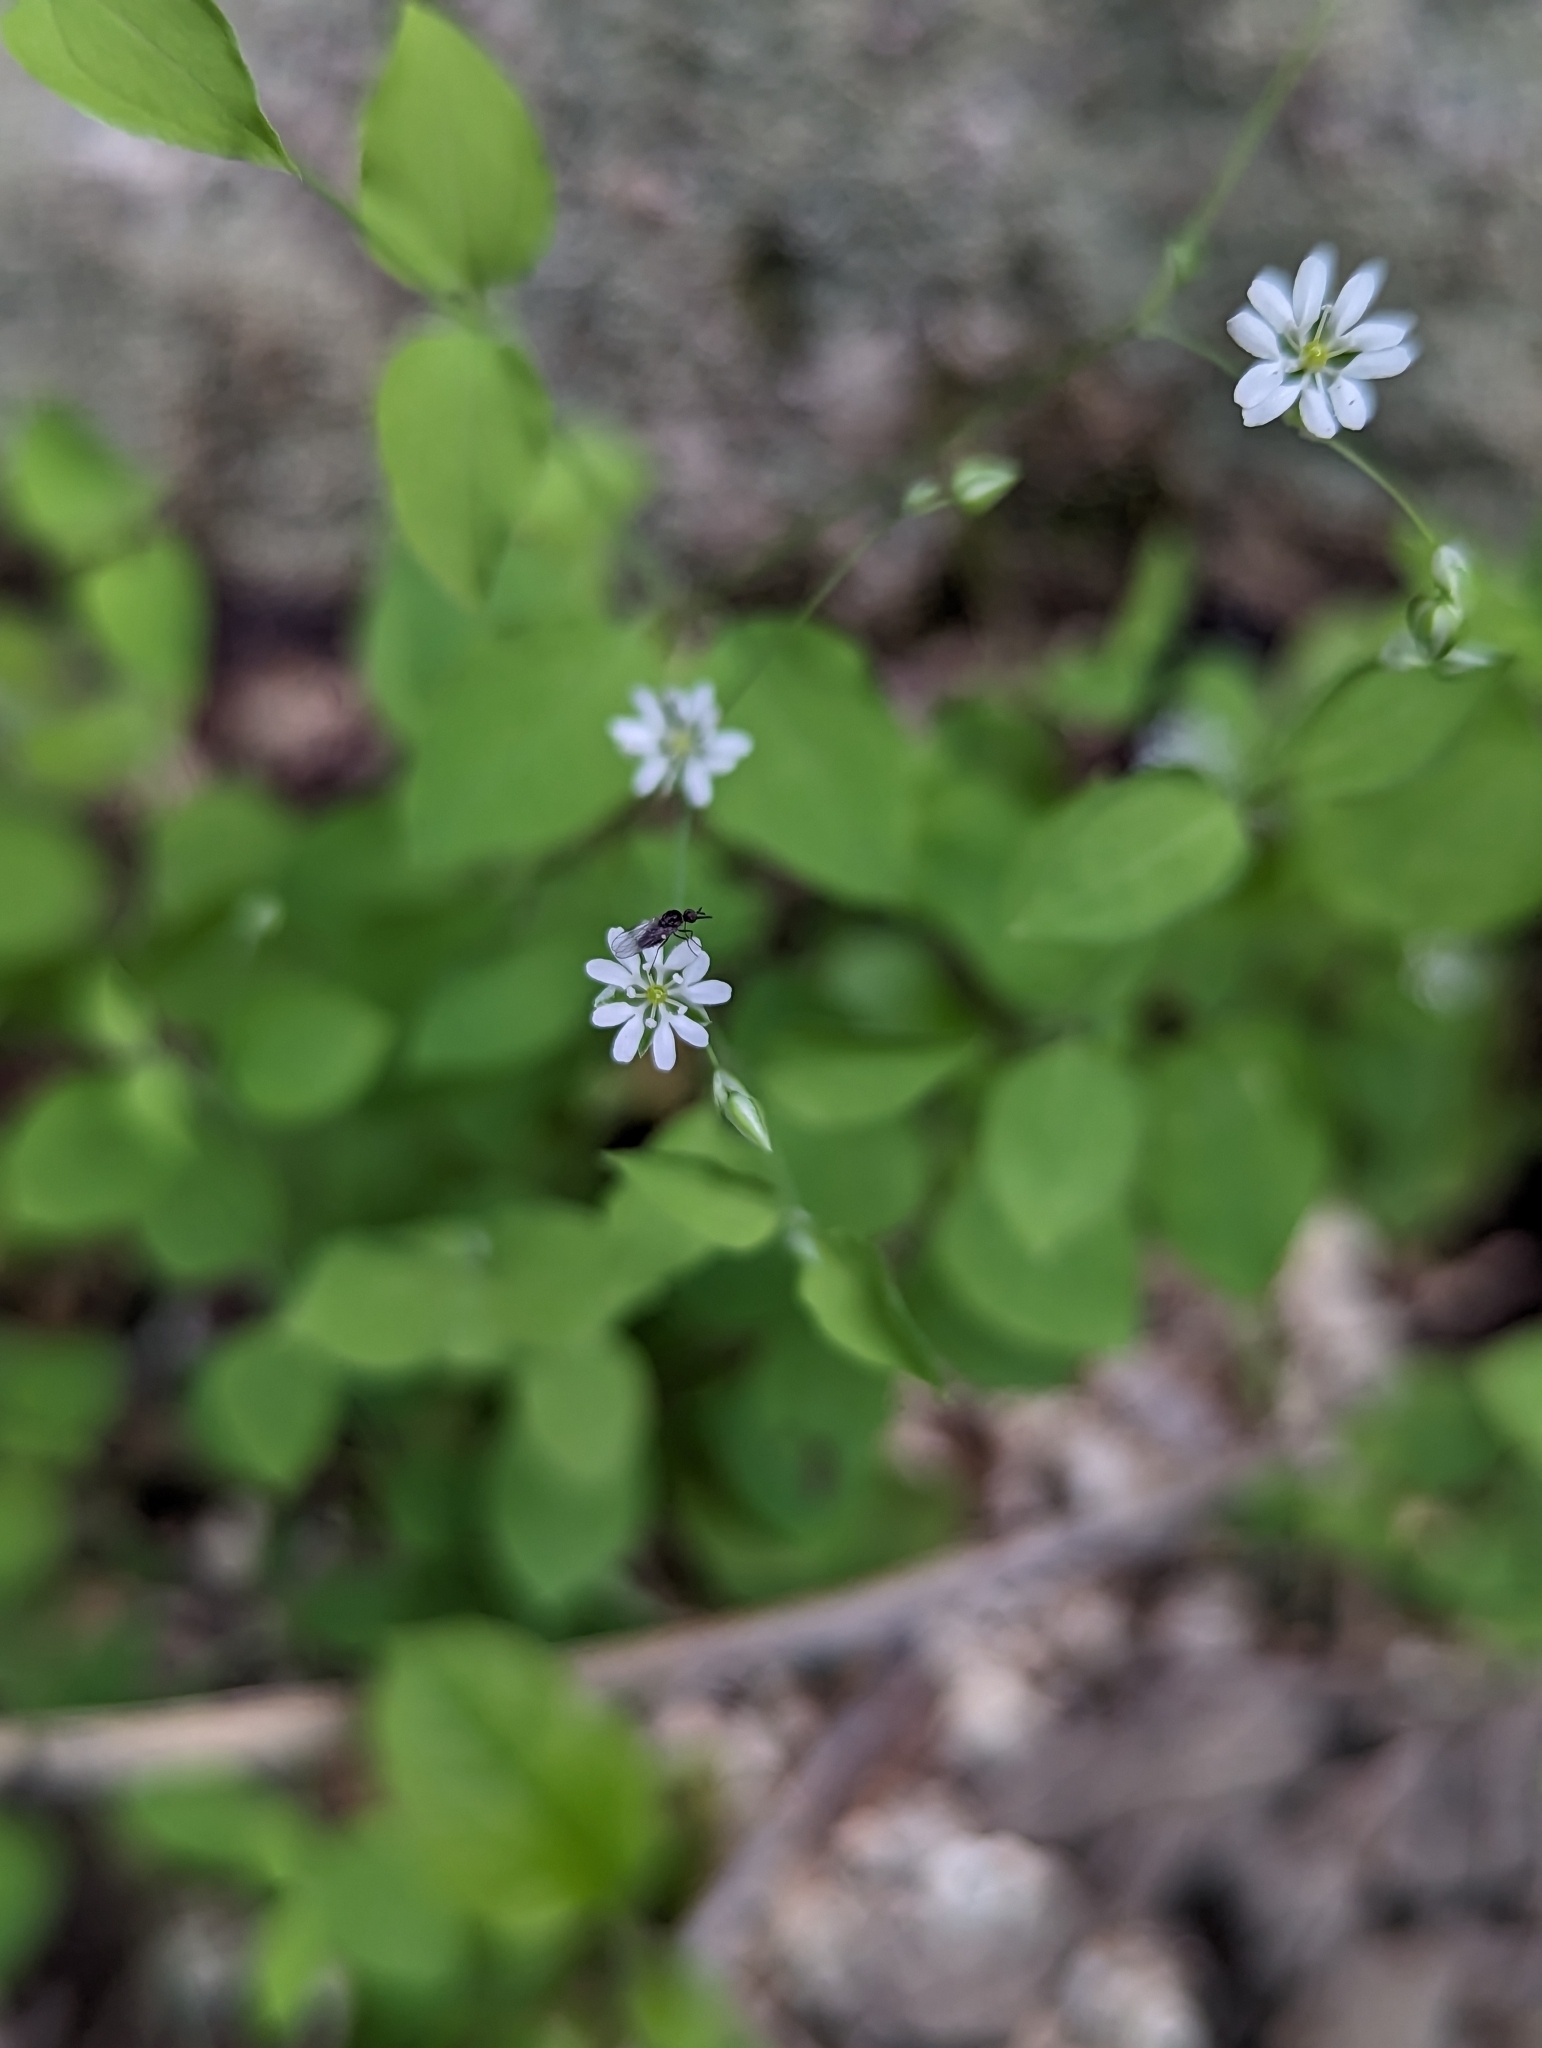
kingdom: Plantae
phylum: Tracheophyta
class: Magnoliopsida
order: Caryophyllales
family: Caryophyllaceae
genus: Drymaria
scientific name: Drymaria gracilis
